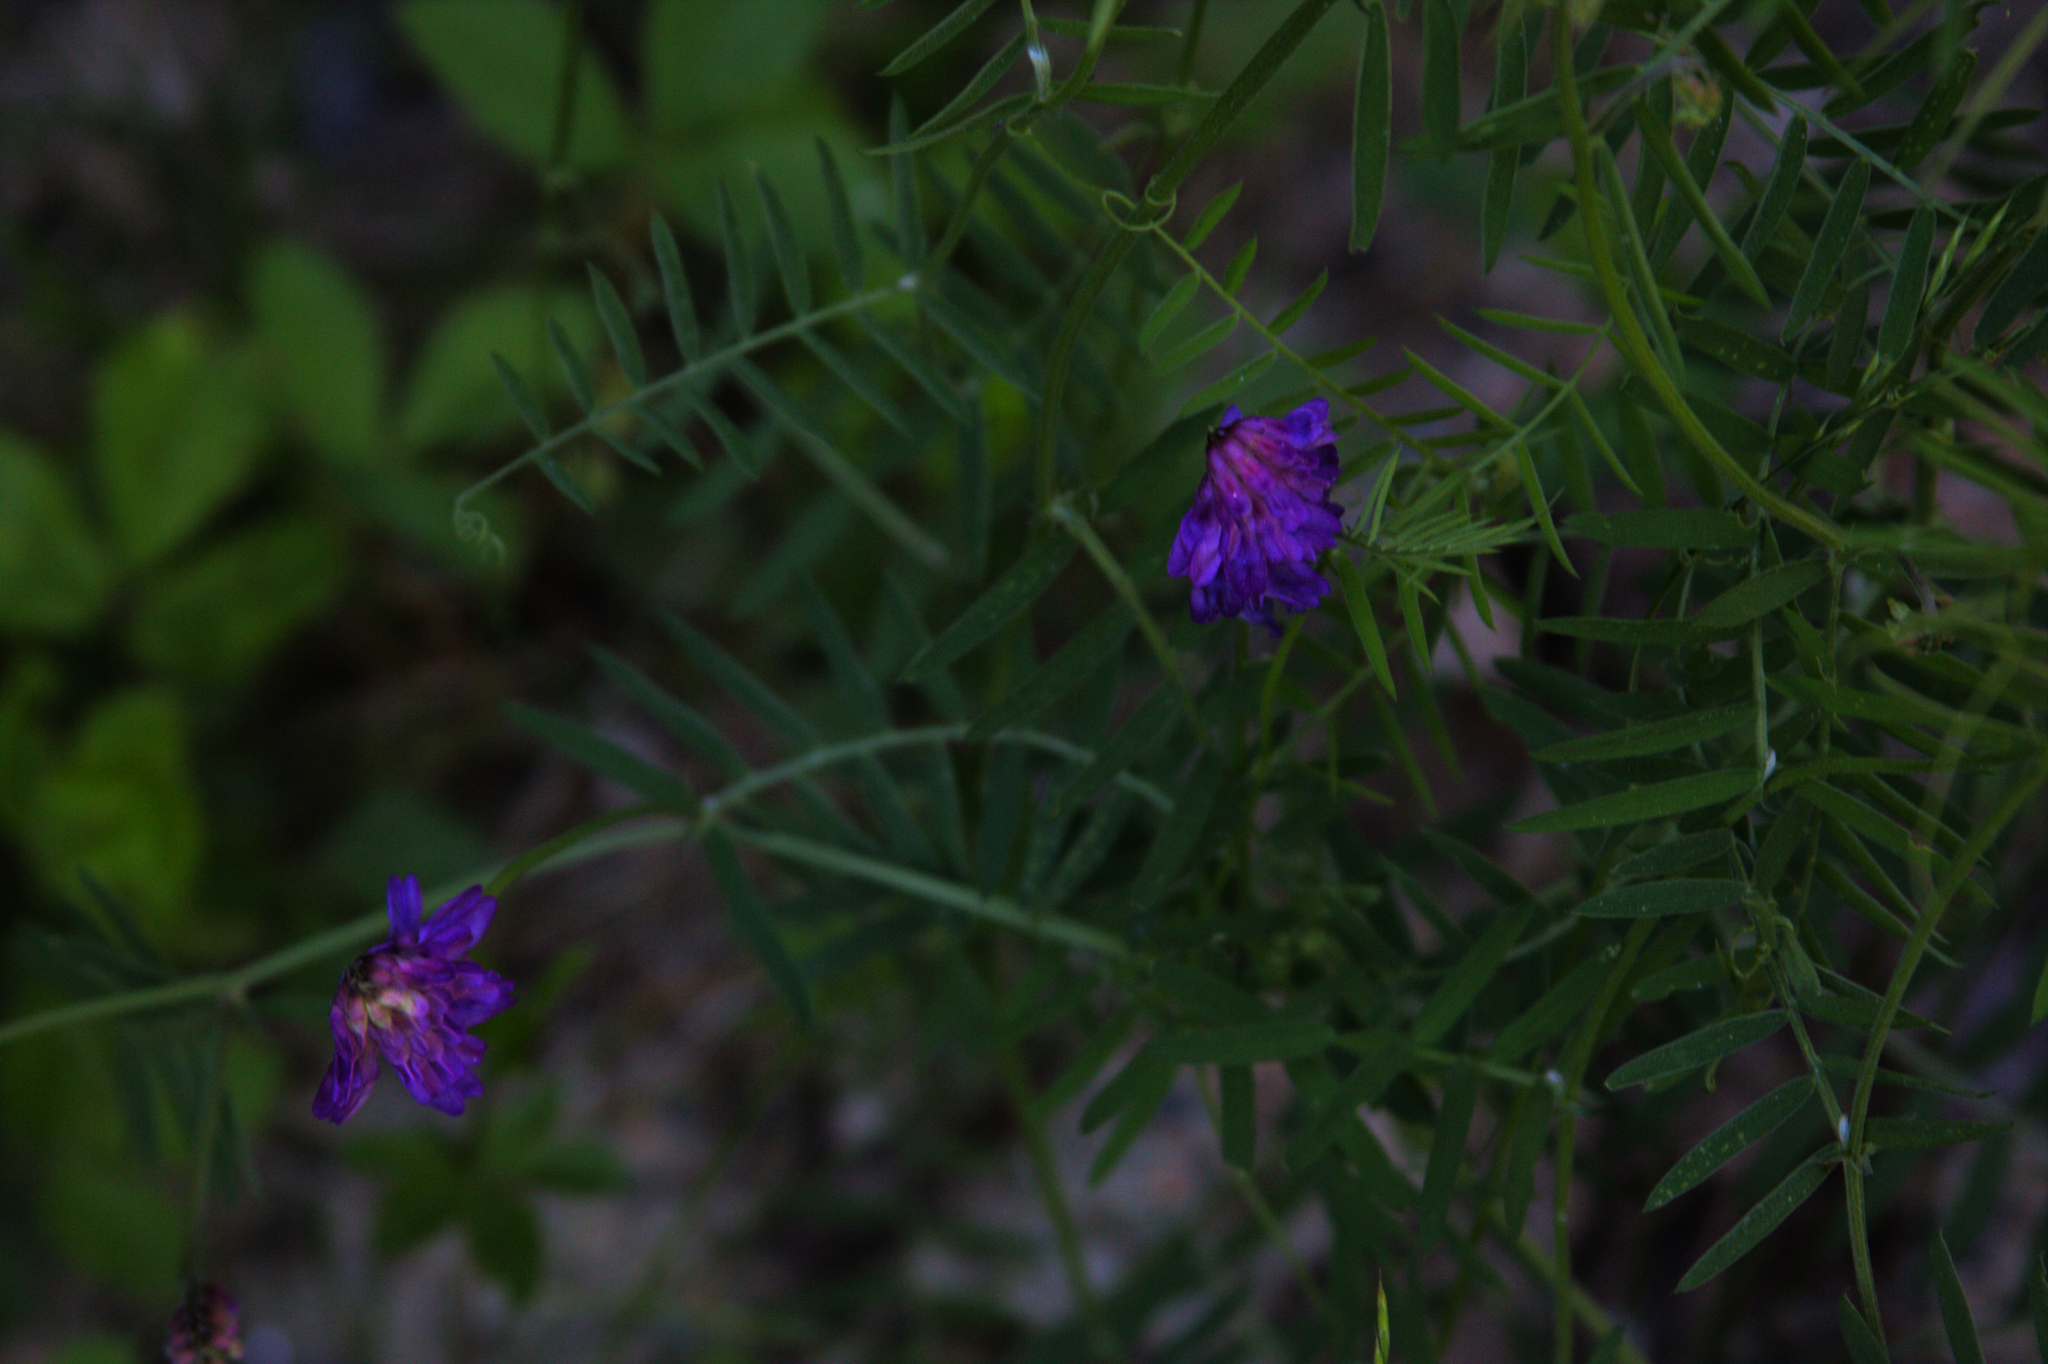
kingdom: Plantae
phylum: Tracheophyta
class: Magnoliopsida
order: Fabales
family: Fabaceae
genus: Vicia
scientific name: Vicia cracca
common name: Bird vetch
